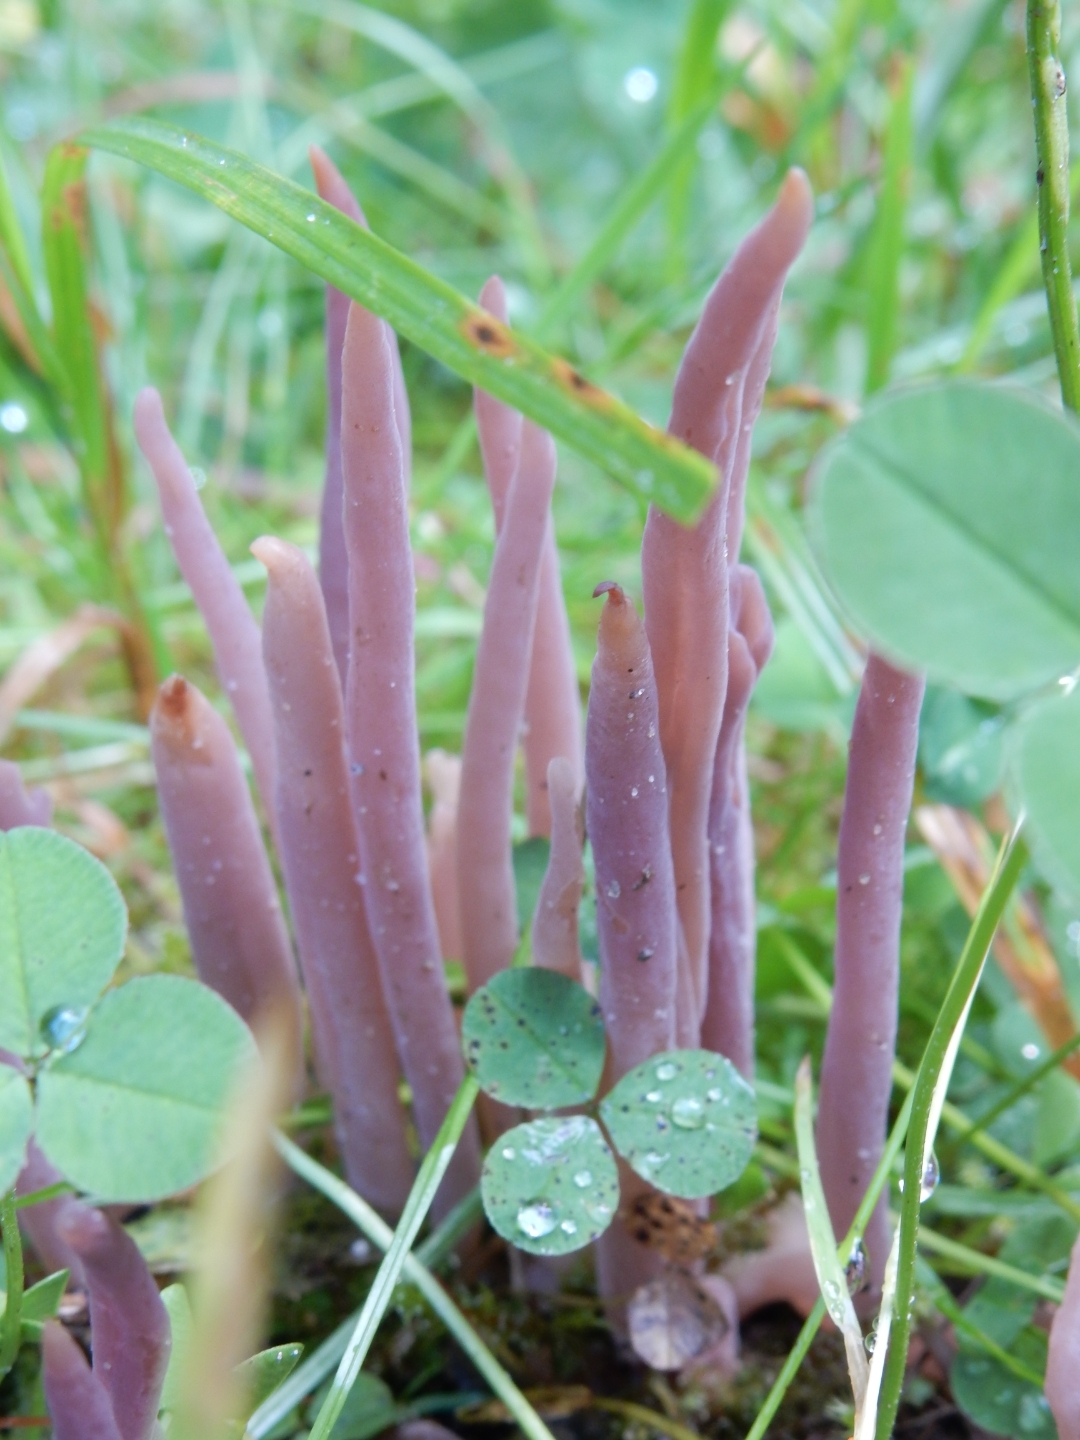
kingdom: Fungi
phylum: Basidiomycota
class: Agaricomycetes
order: Hymenochaetales
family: Rickenellaceae
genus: Alloclavaria
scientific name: Alloclavaria purpurea
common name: Purple spindles
